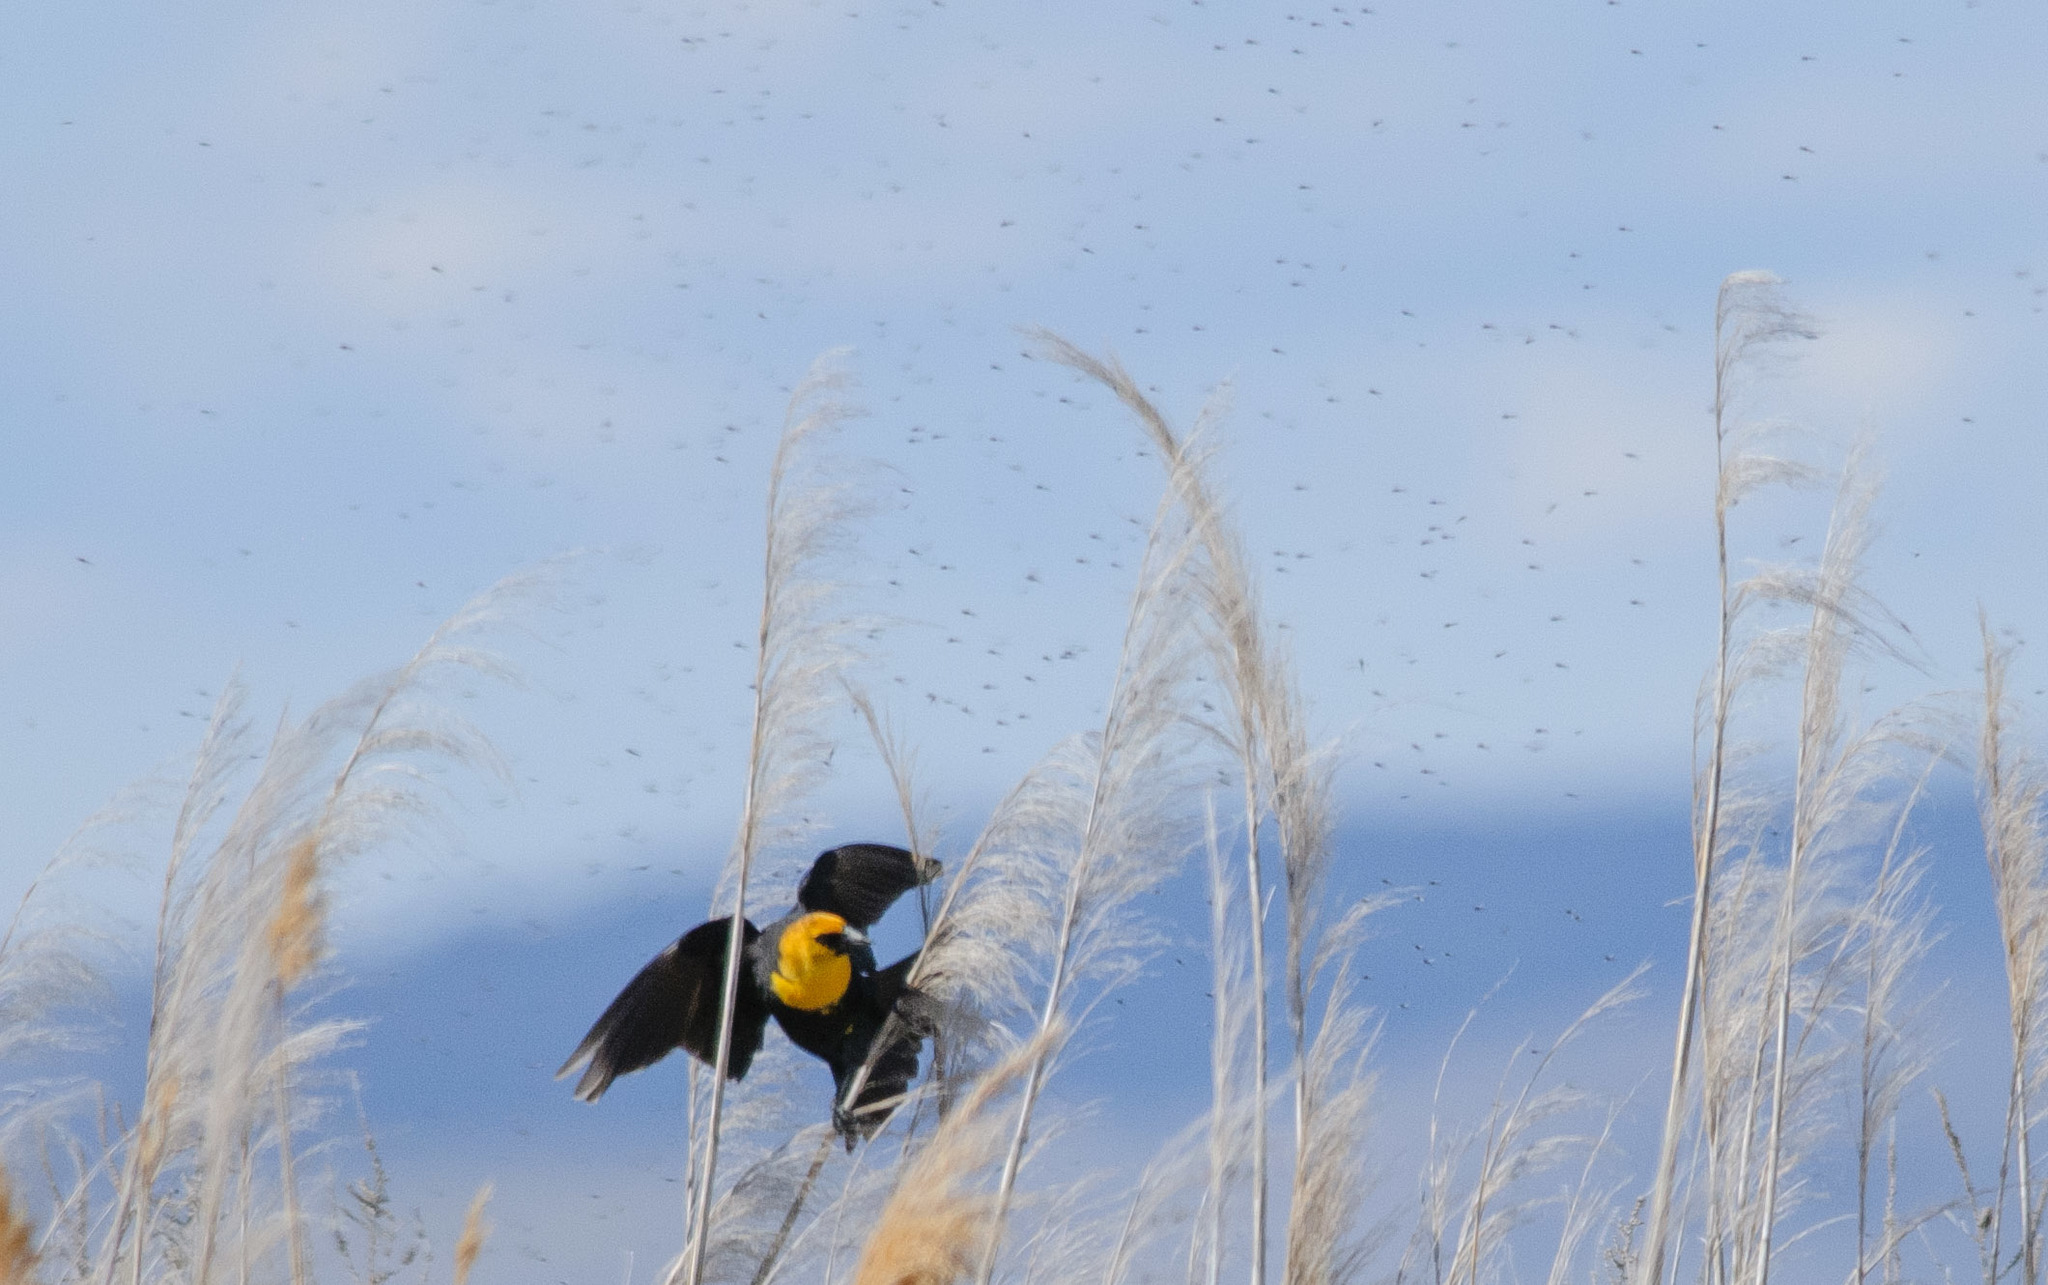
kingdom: Animalia
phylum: Chordata
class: Aves
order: Passeriformes
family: Icteridae
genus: Xanthocephalus
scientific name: Xanthocephalus xanthocephalus
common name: Yellow-headed blackbird
